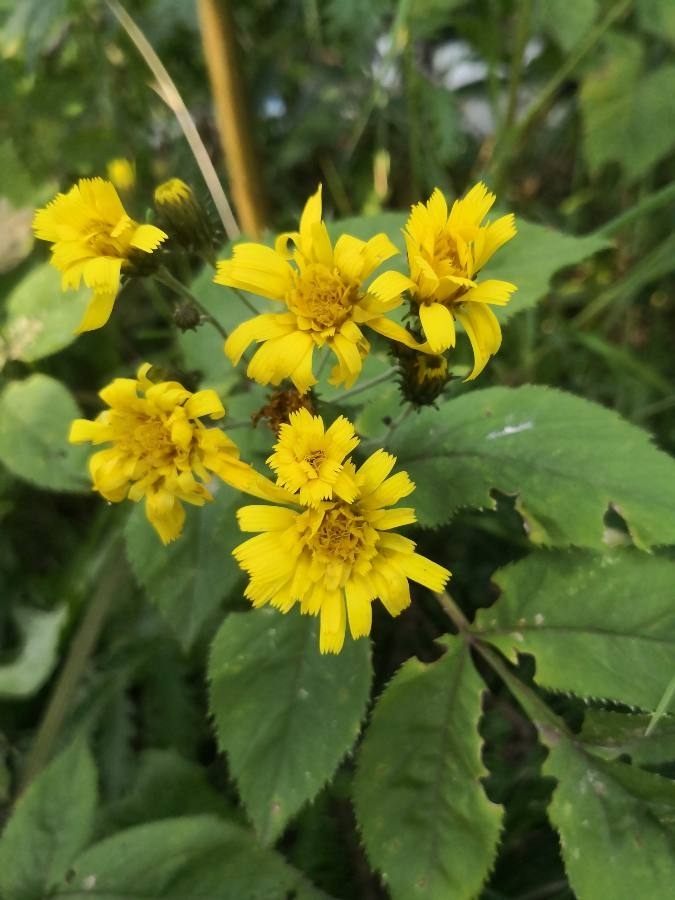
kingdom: Plantae
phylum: Tracheophyta
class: Magnoliopsida
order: Asterales
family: Asteraceae
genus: Hieracium
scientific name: Hieracium umbellatum
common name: Northern hawkweed
